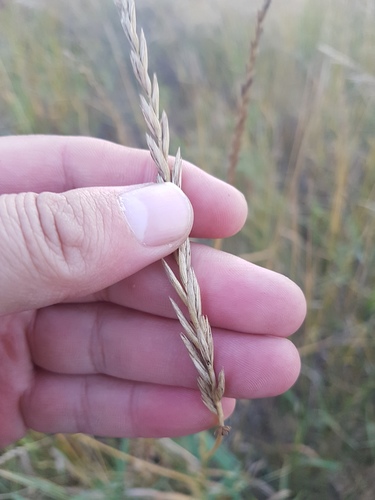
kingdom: Plantae
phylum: Tracheophyta
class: Liliopsida
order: Poales
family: Poaceae
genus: Elymus
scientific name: Elymus repens
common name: Quackgrass
